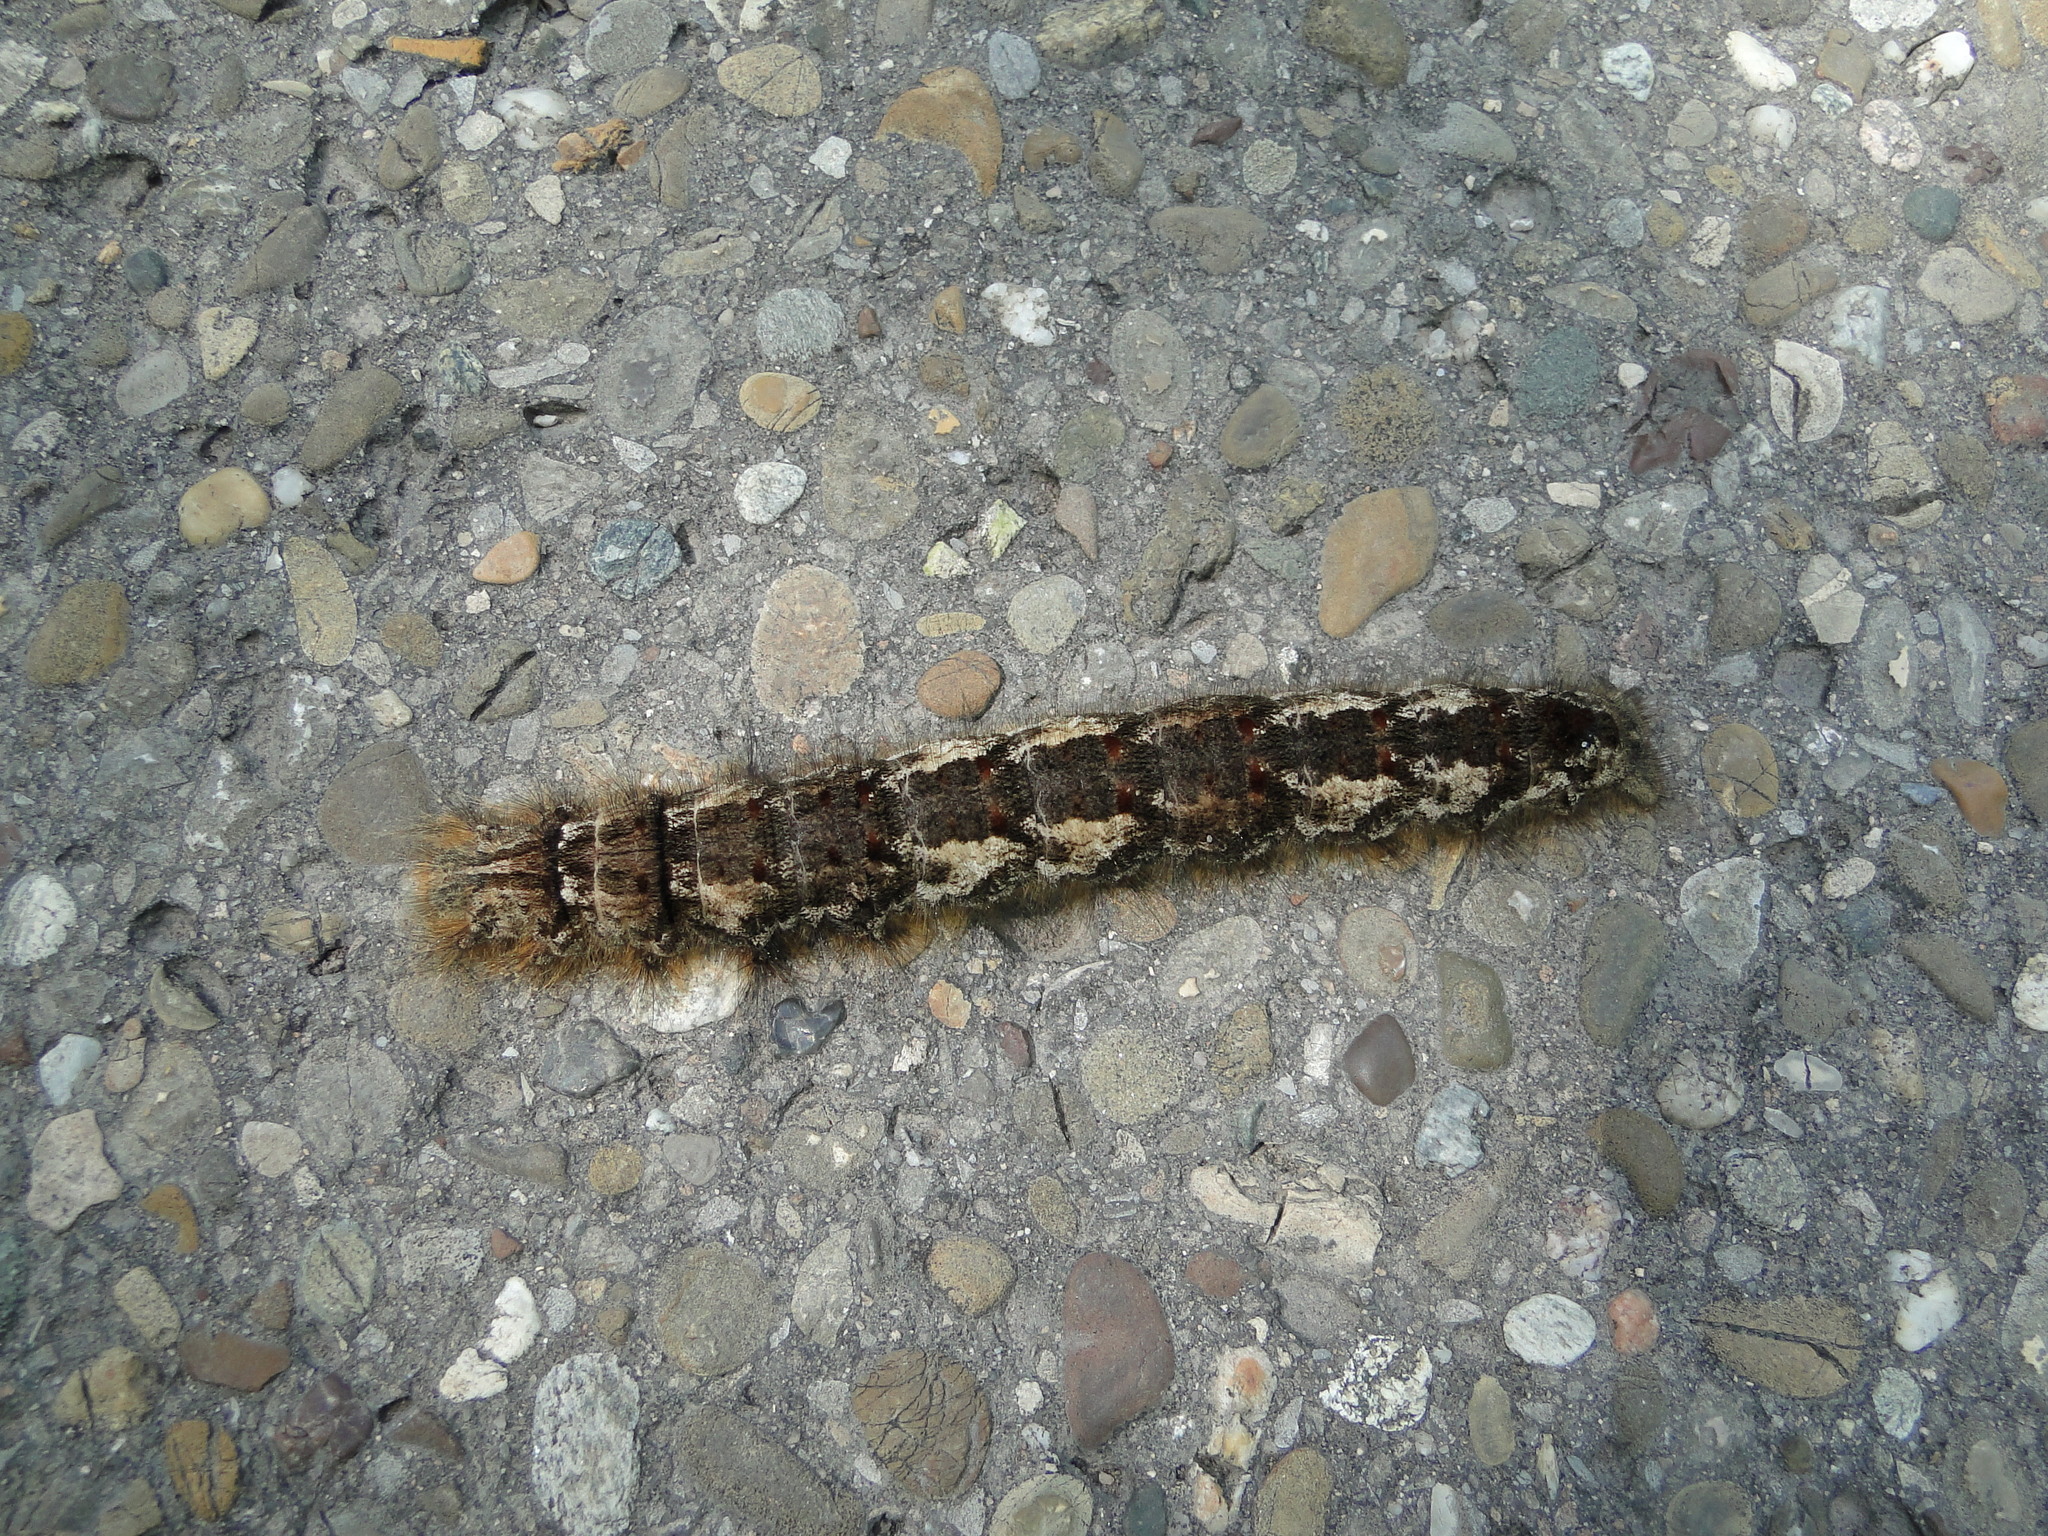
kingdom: Animalia
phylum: Arthropoda
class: Insecta
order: Lepidoptera
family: Lasiocampidae
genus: Gastropacha
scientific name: Gastropacha quercifolia
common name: Lappet
